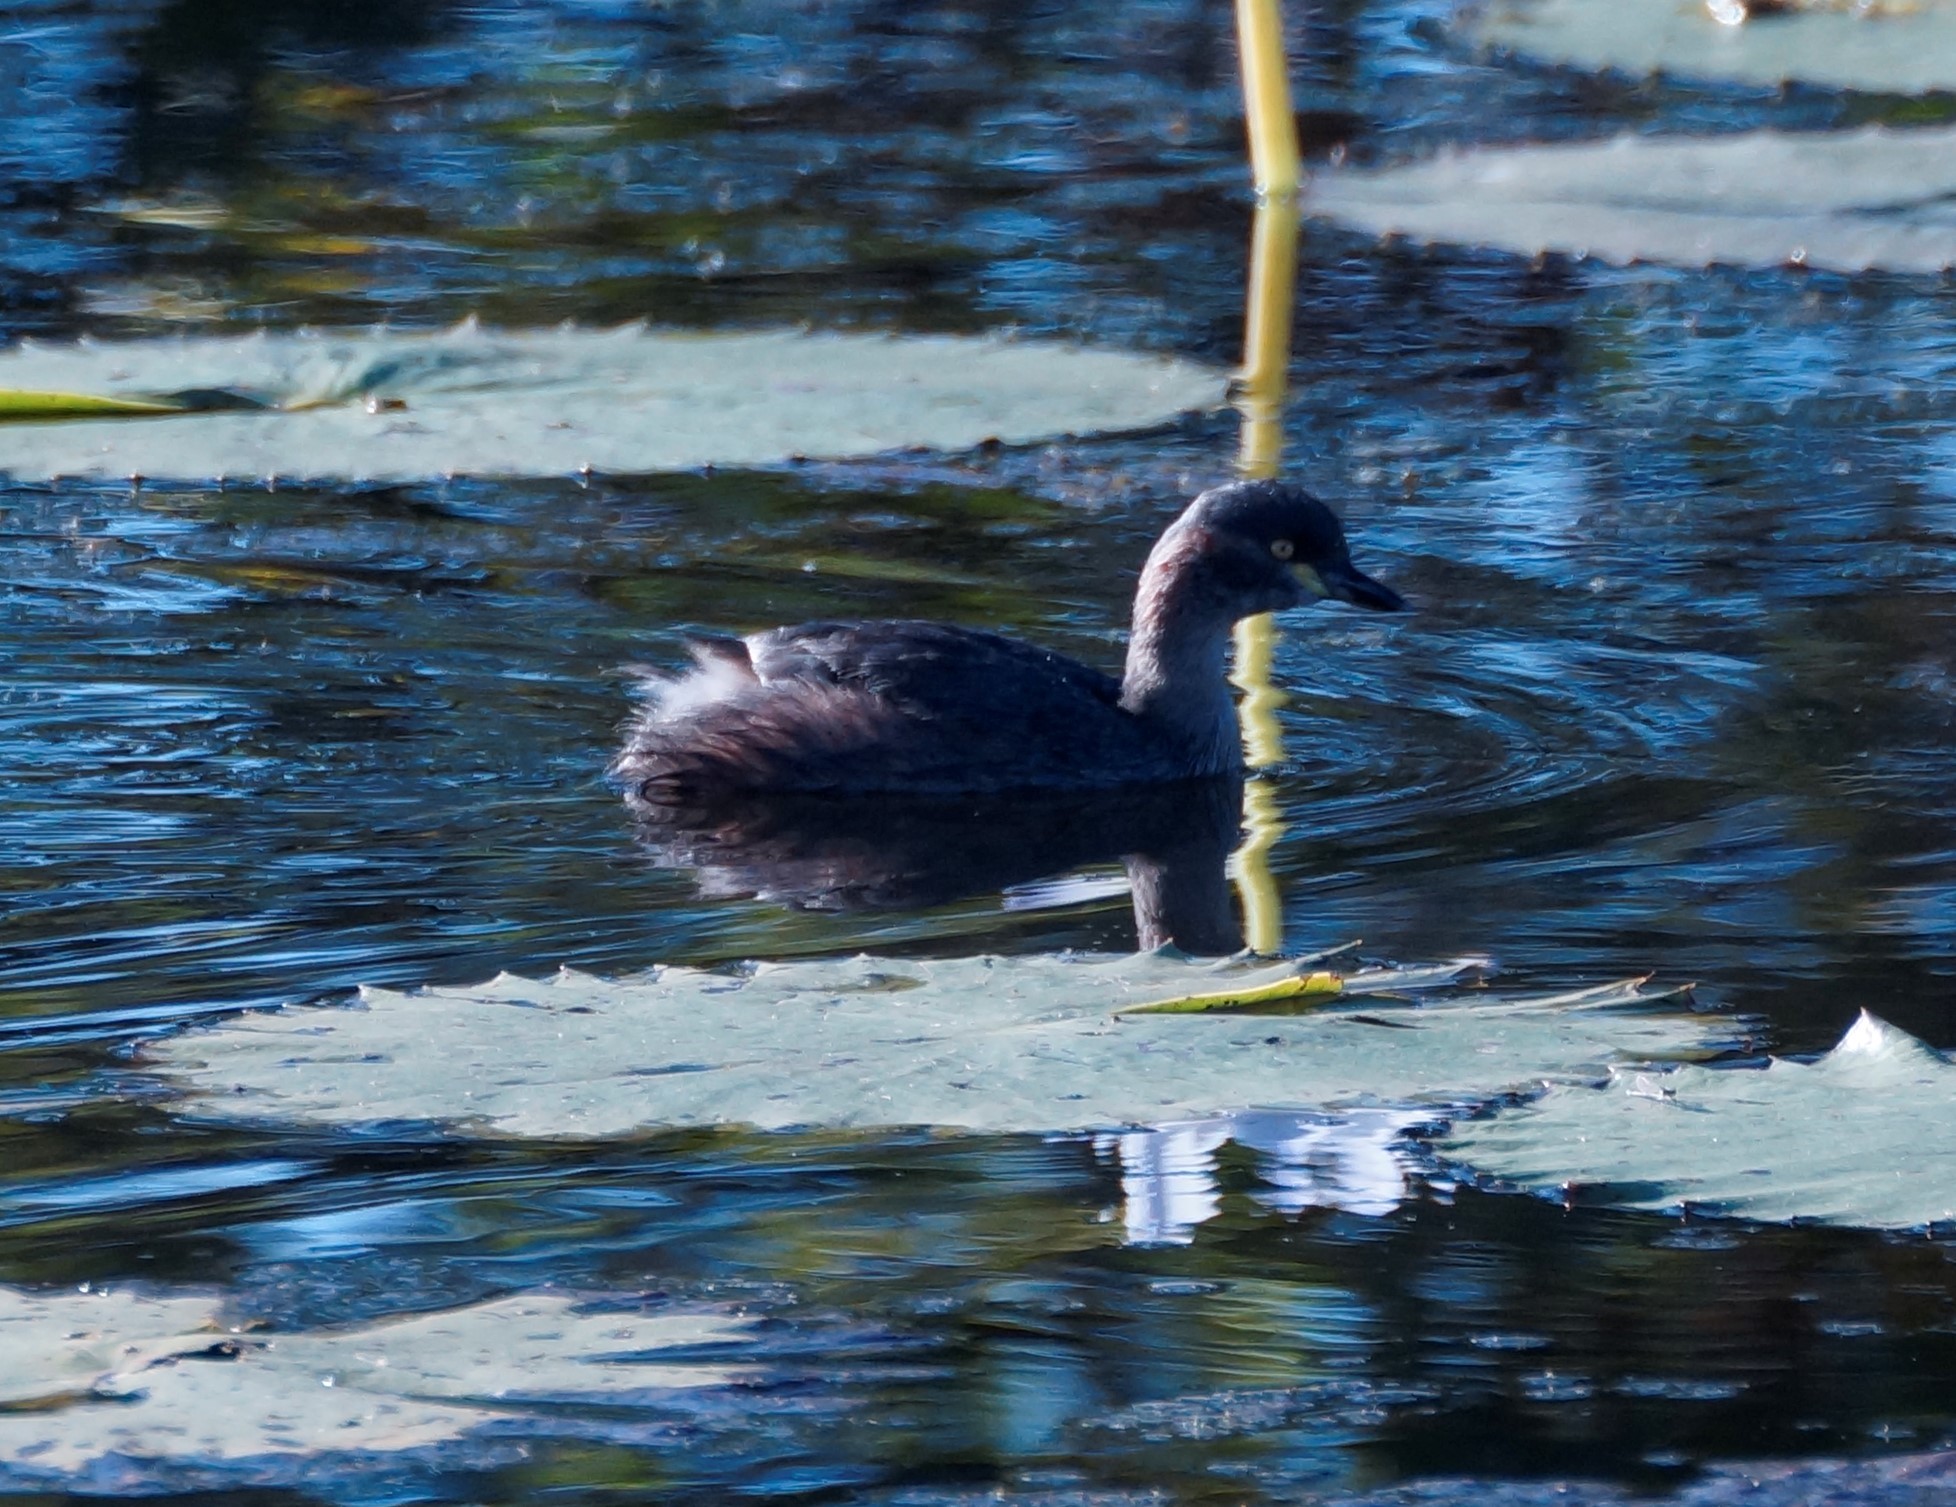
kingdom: Animalia
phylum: Chordata
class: Aves
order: Podicipediformes
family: Podicipedidae
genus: Tachybaptus
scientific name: Tachybaptus novaehollandiae
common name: Australasian grebe
